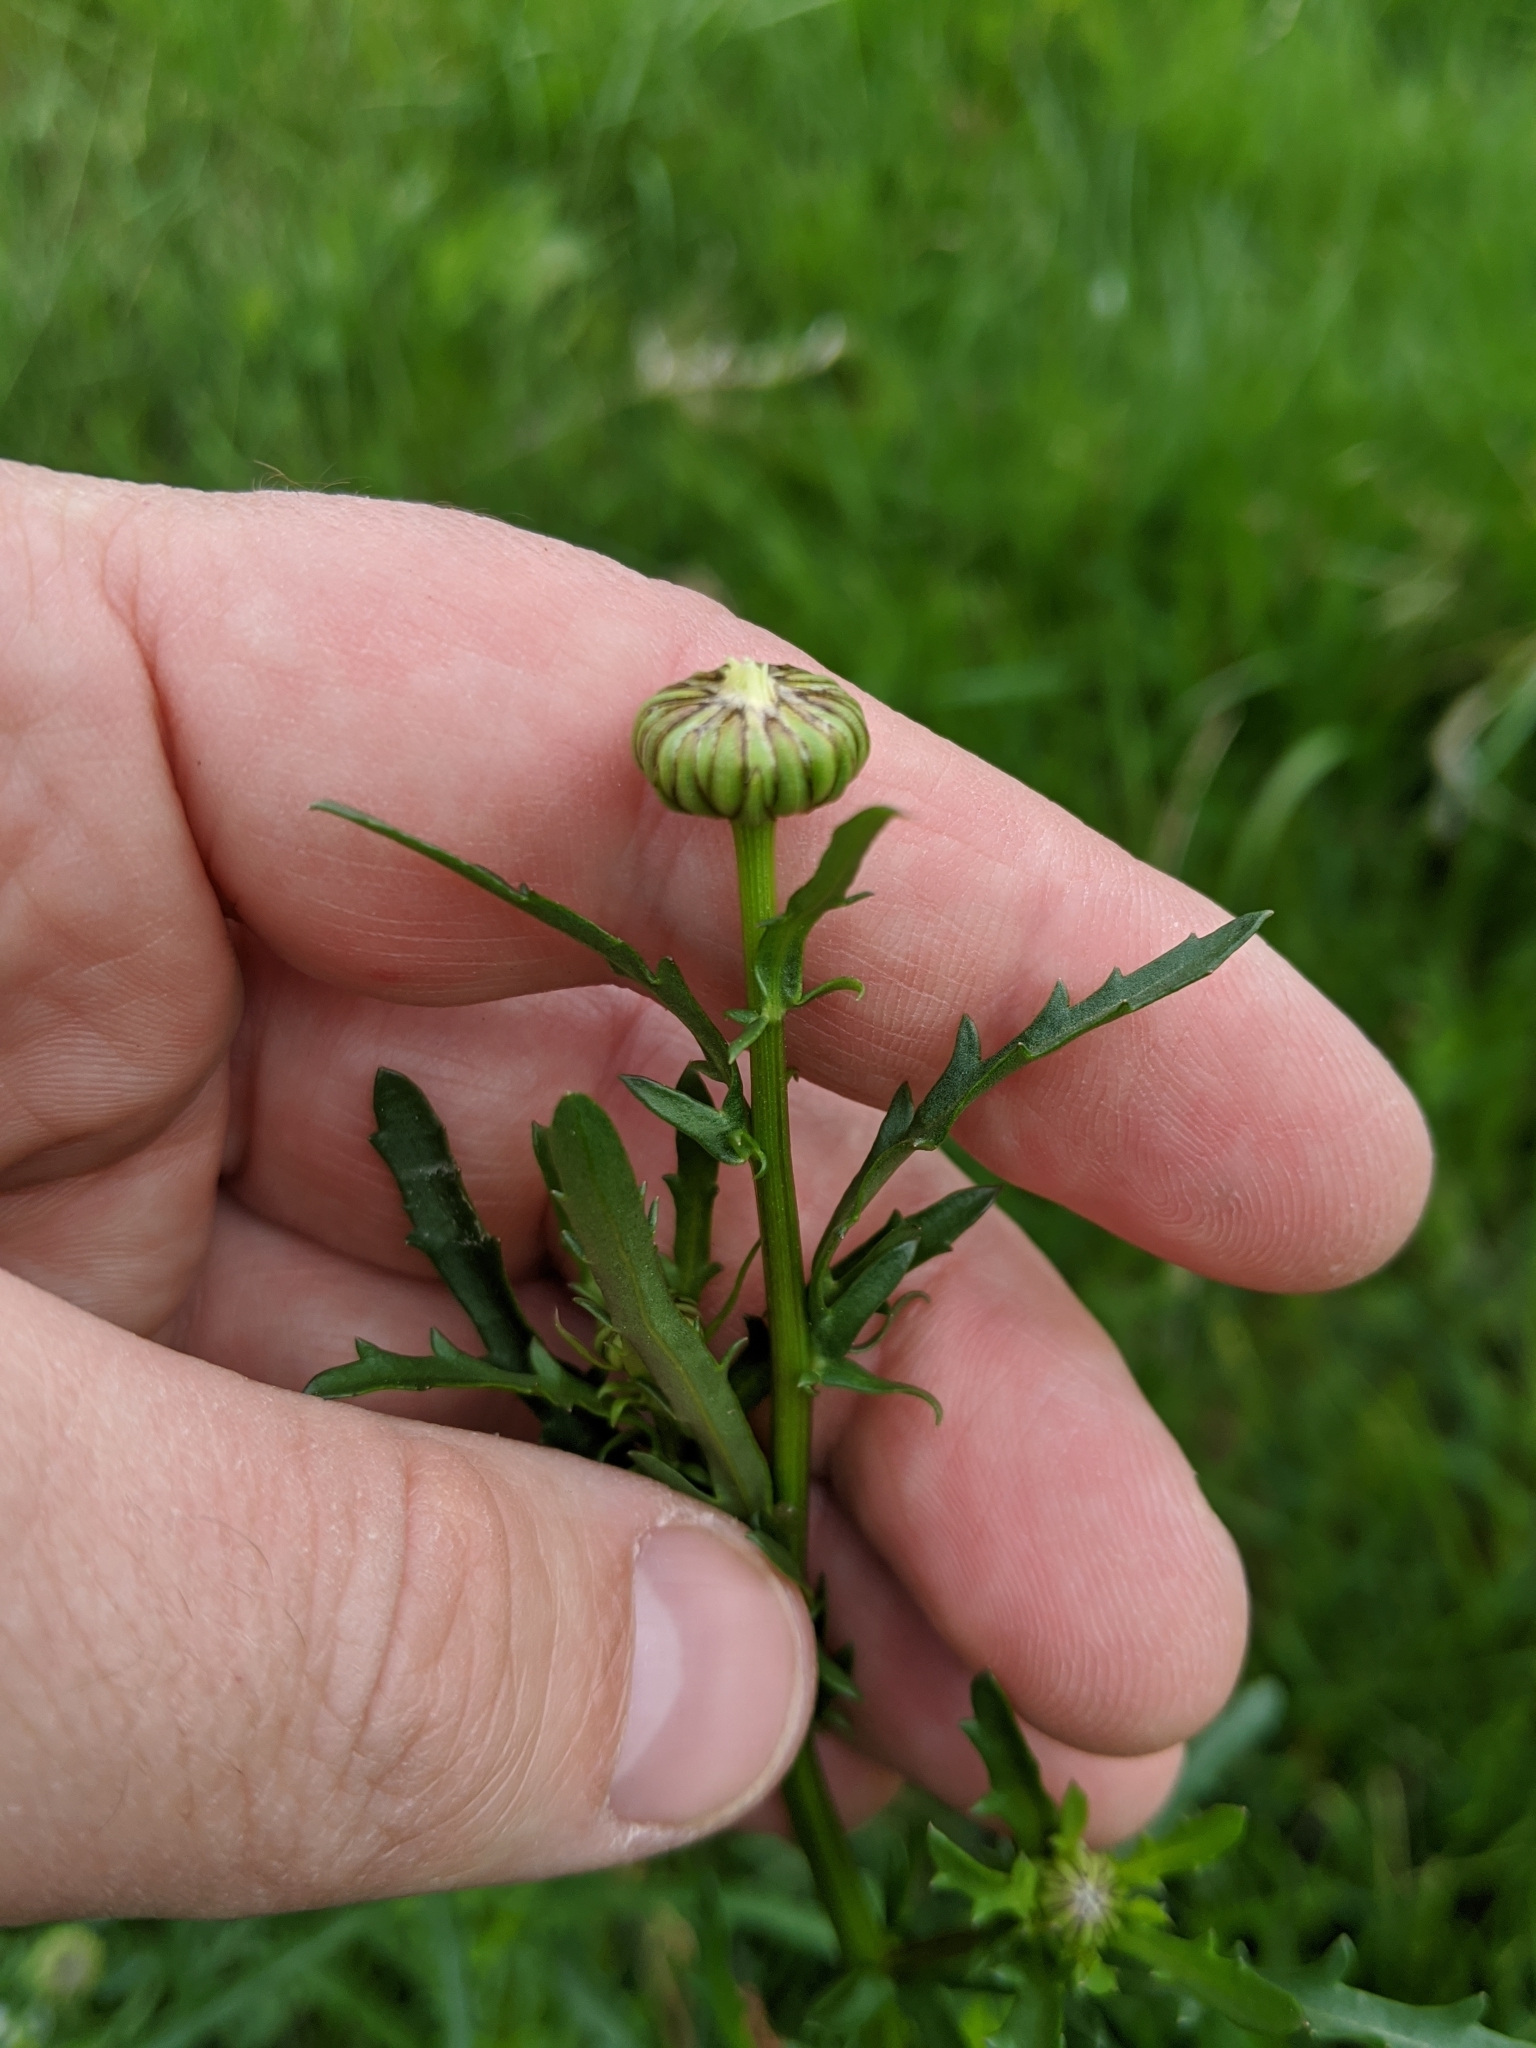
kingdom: Plantae
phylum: Tracheophyta
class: Magnoliopsida
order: Asterales
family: Asteraceae
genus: Leucanthemum
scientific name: Leucanthemum vulgare
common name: Oxeye daisy
